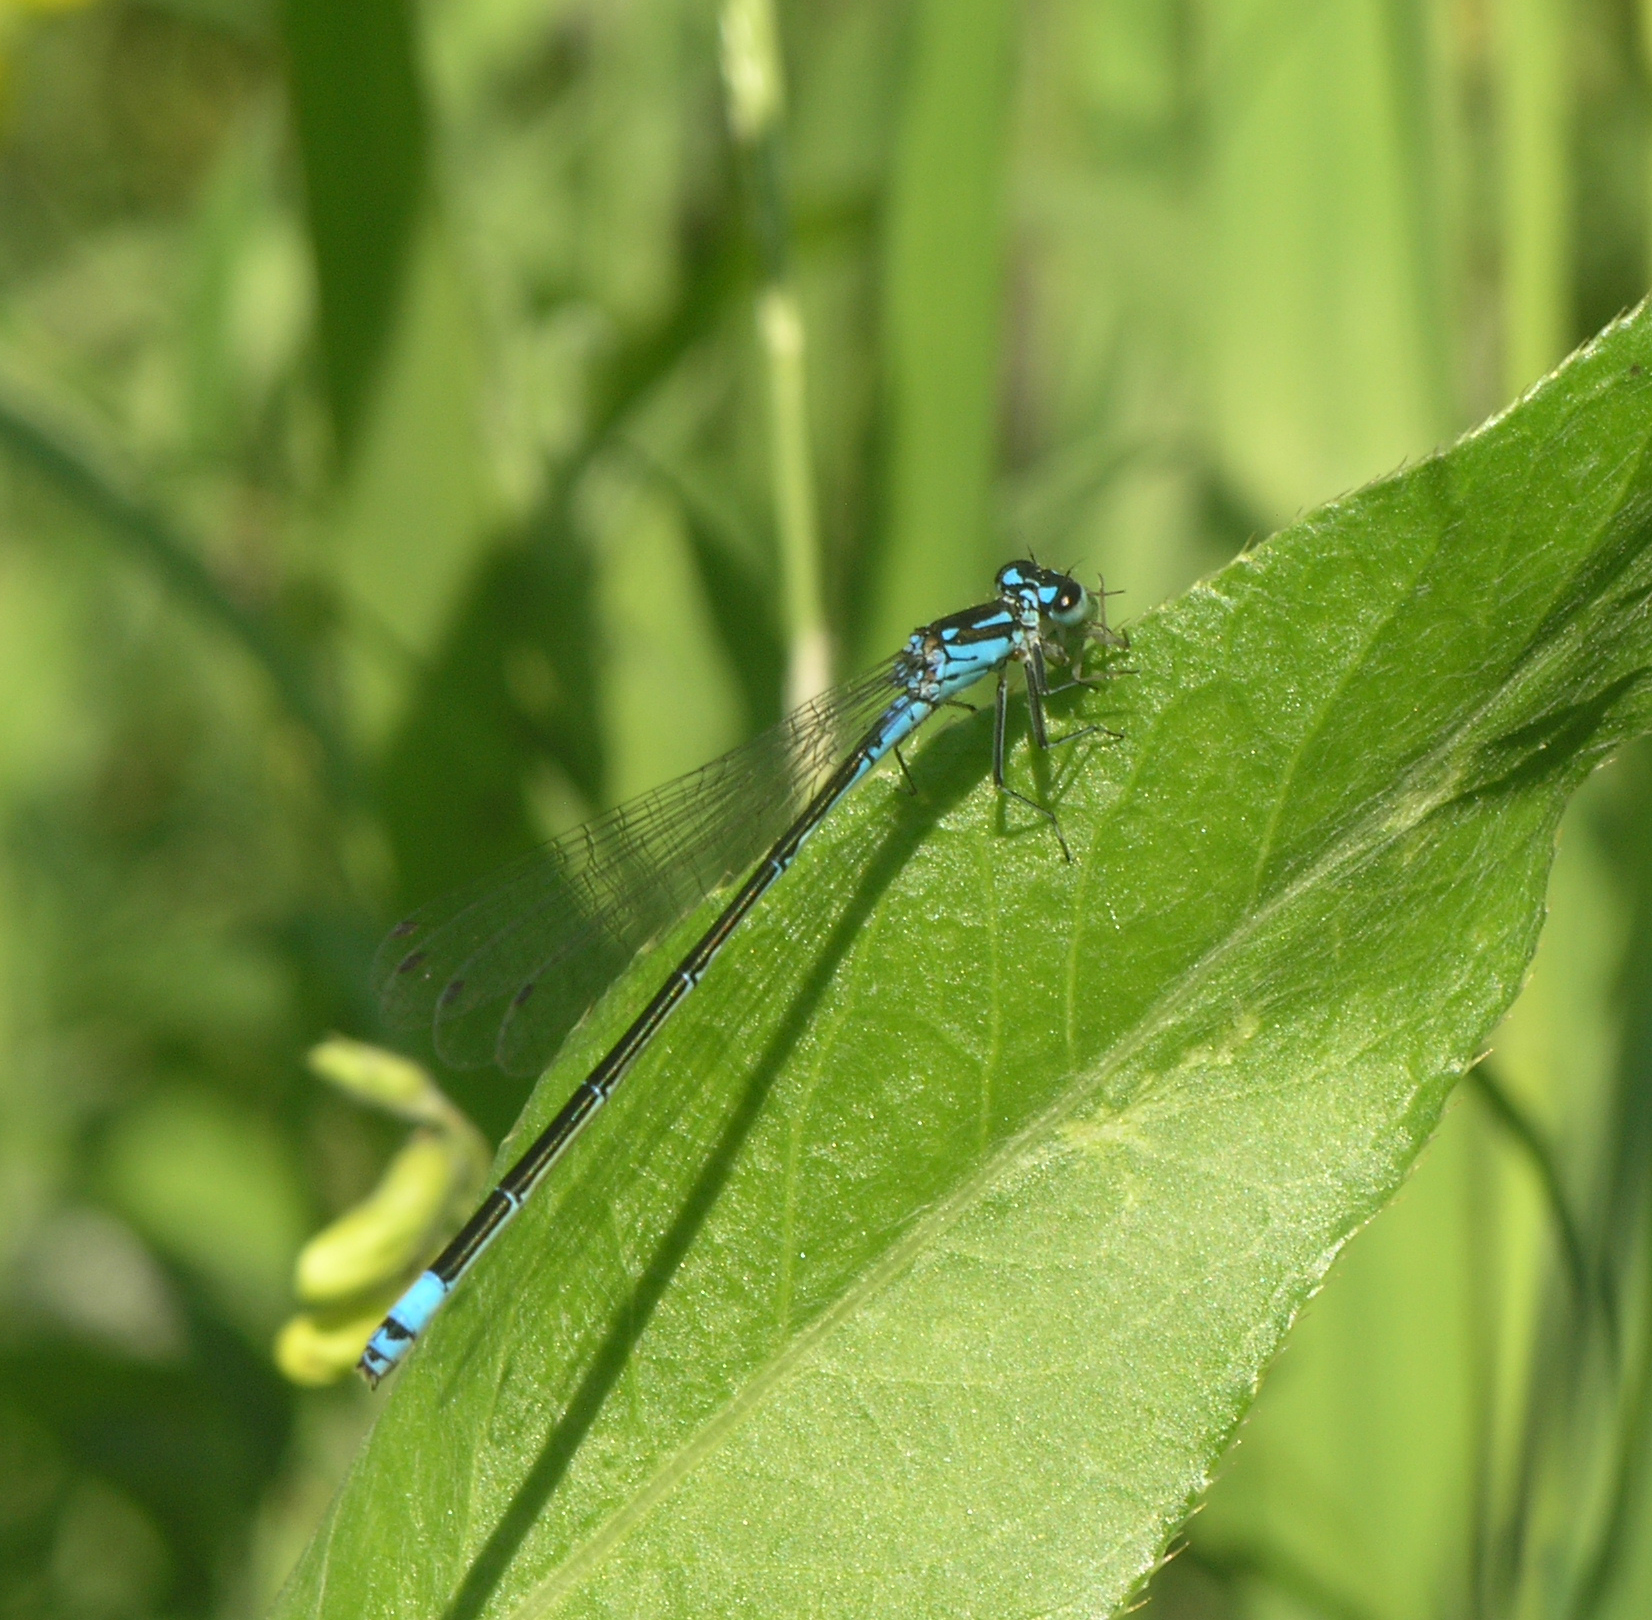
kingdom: Animalia
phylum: Arthropoda
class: Insecta
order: Odonata
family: Coenagrionidae
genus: Coenagrion
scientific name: Coenagrion pulchellum
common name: Variable bluet
